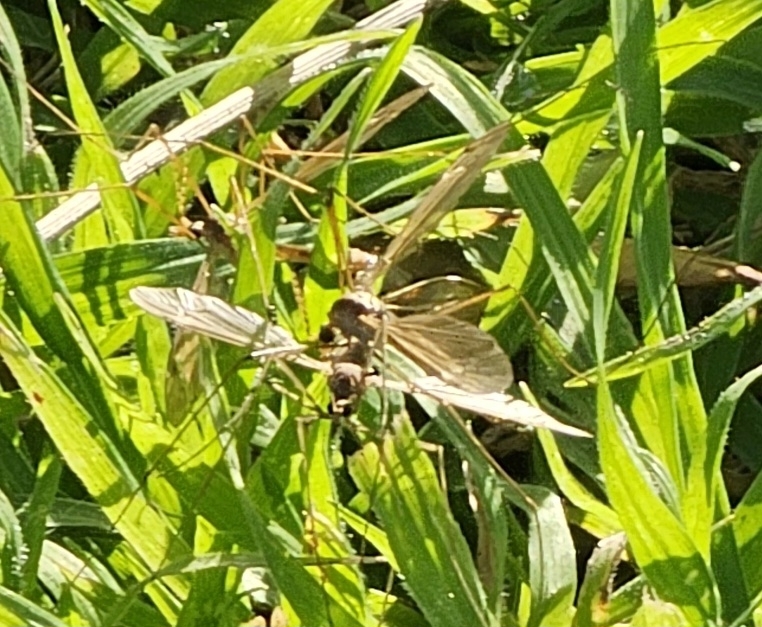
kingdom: Animalia
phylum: Arthropoda
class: Insecta
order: Diptera
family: Tipulidae
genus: Tipula
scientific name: Tipula oleracea
